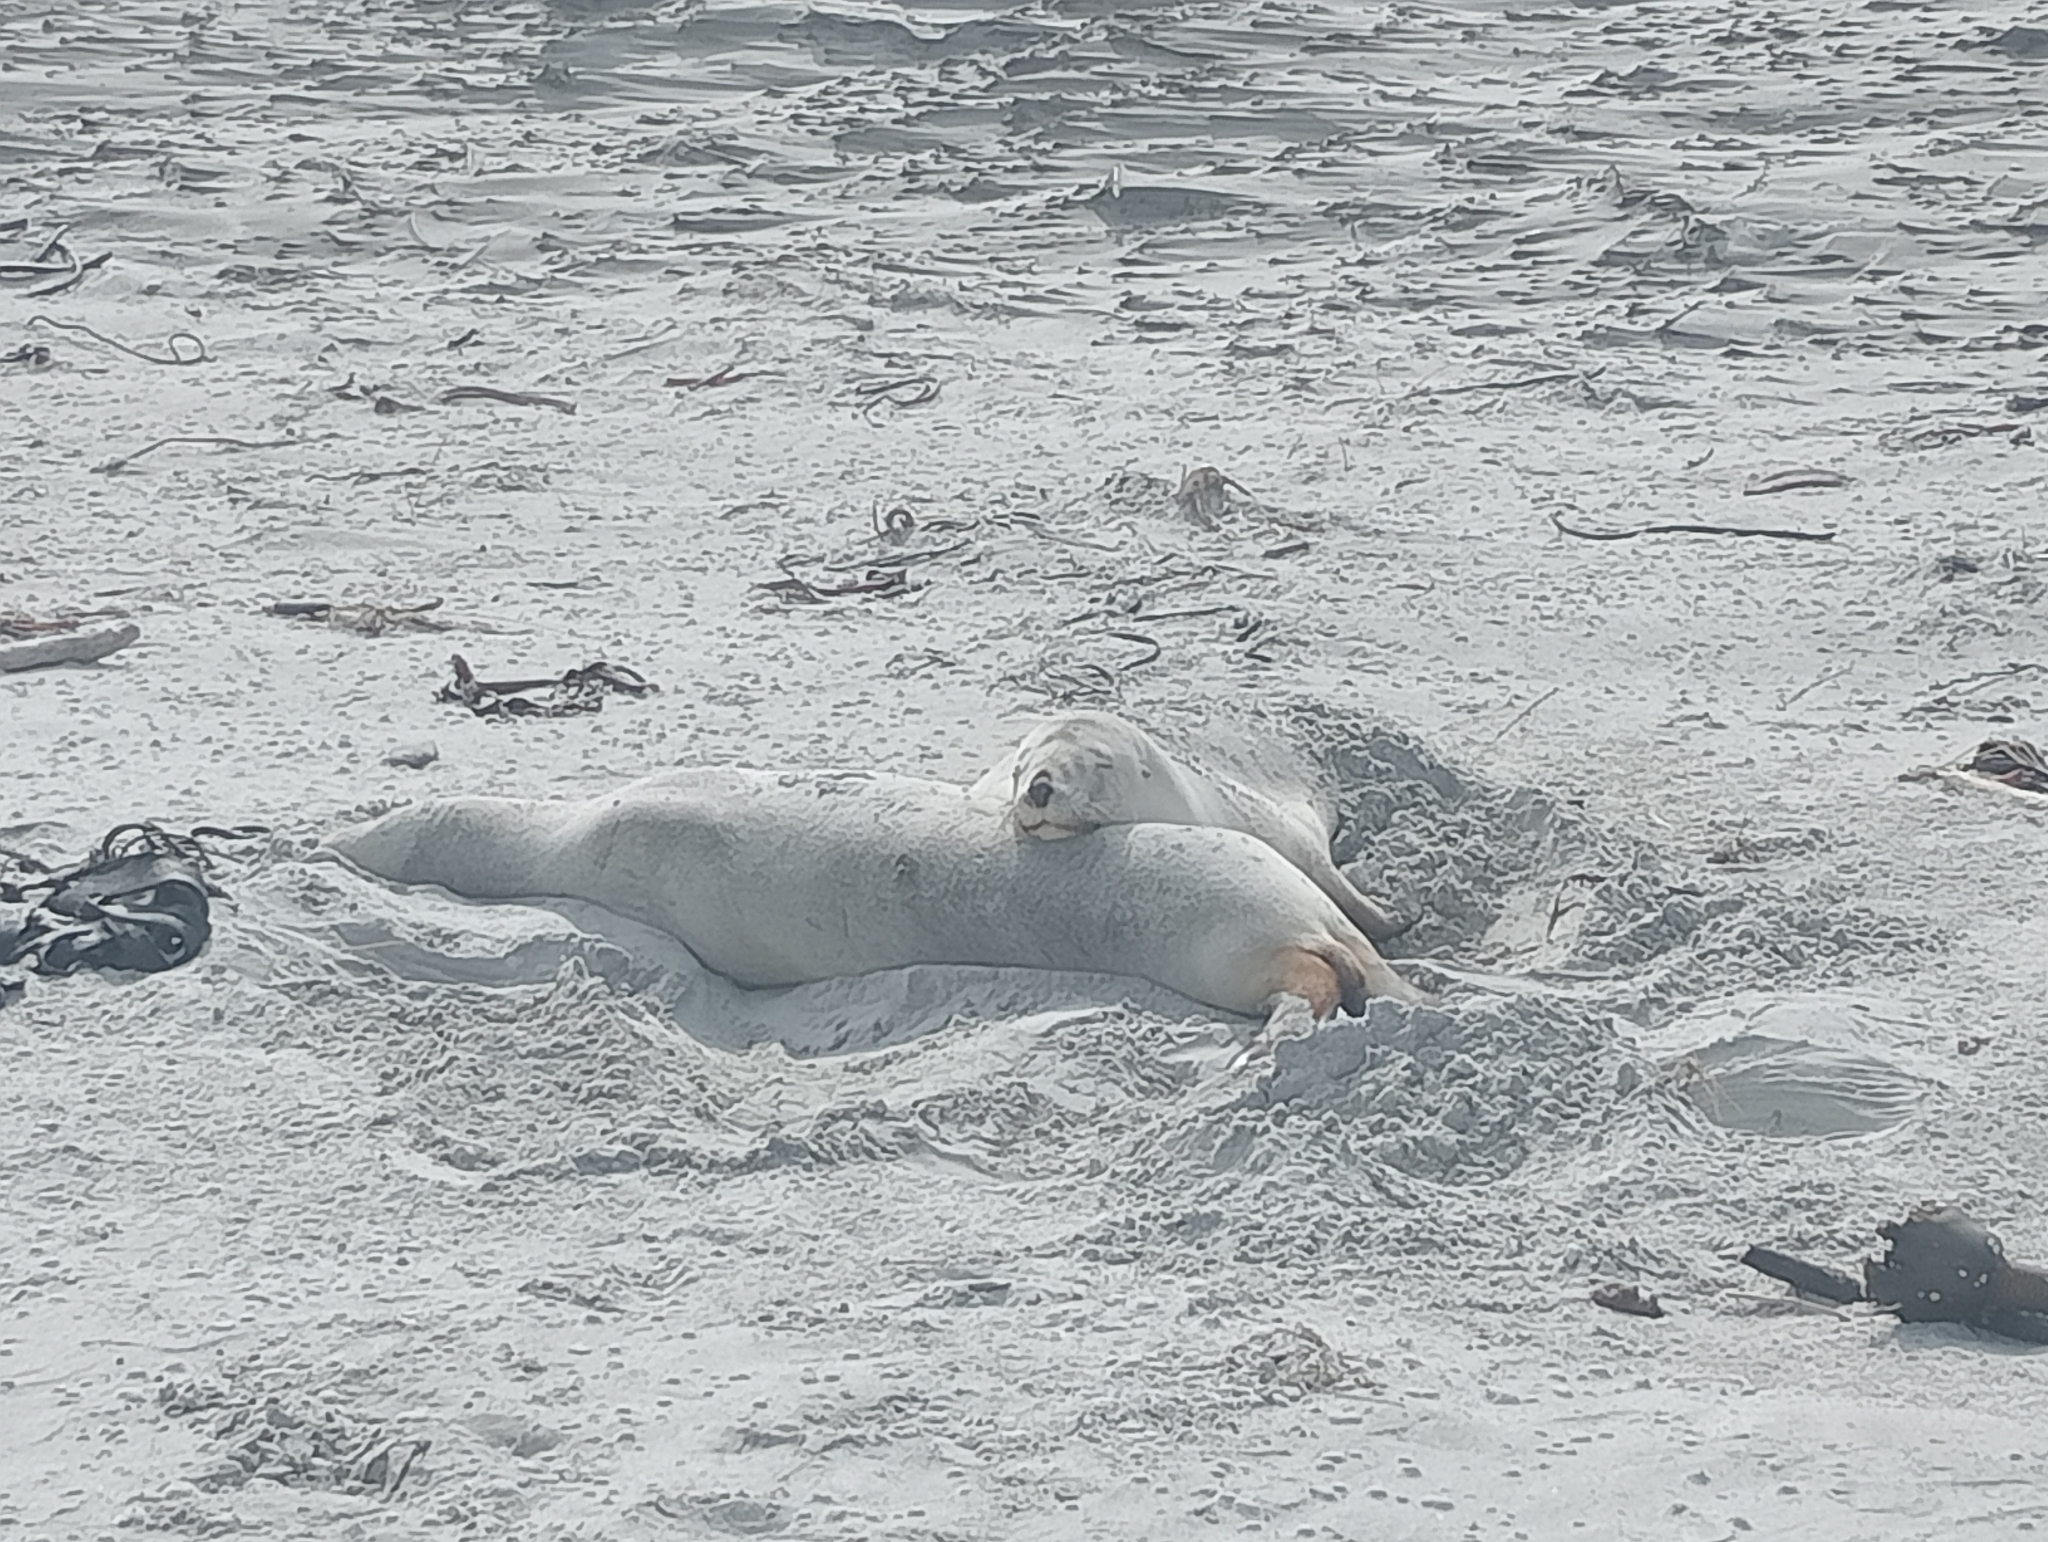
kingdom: Animalia
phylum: Chordata
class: Mammalia
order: Carnivora
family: Otariidae
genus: Phocarctos
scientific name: Phocarctos hookeri
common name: New zealand sea lion
